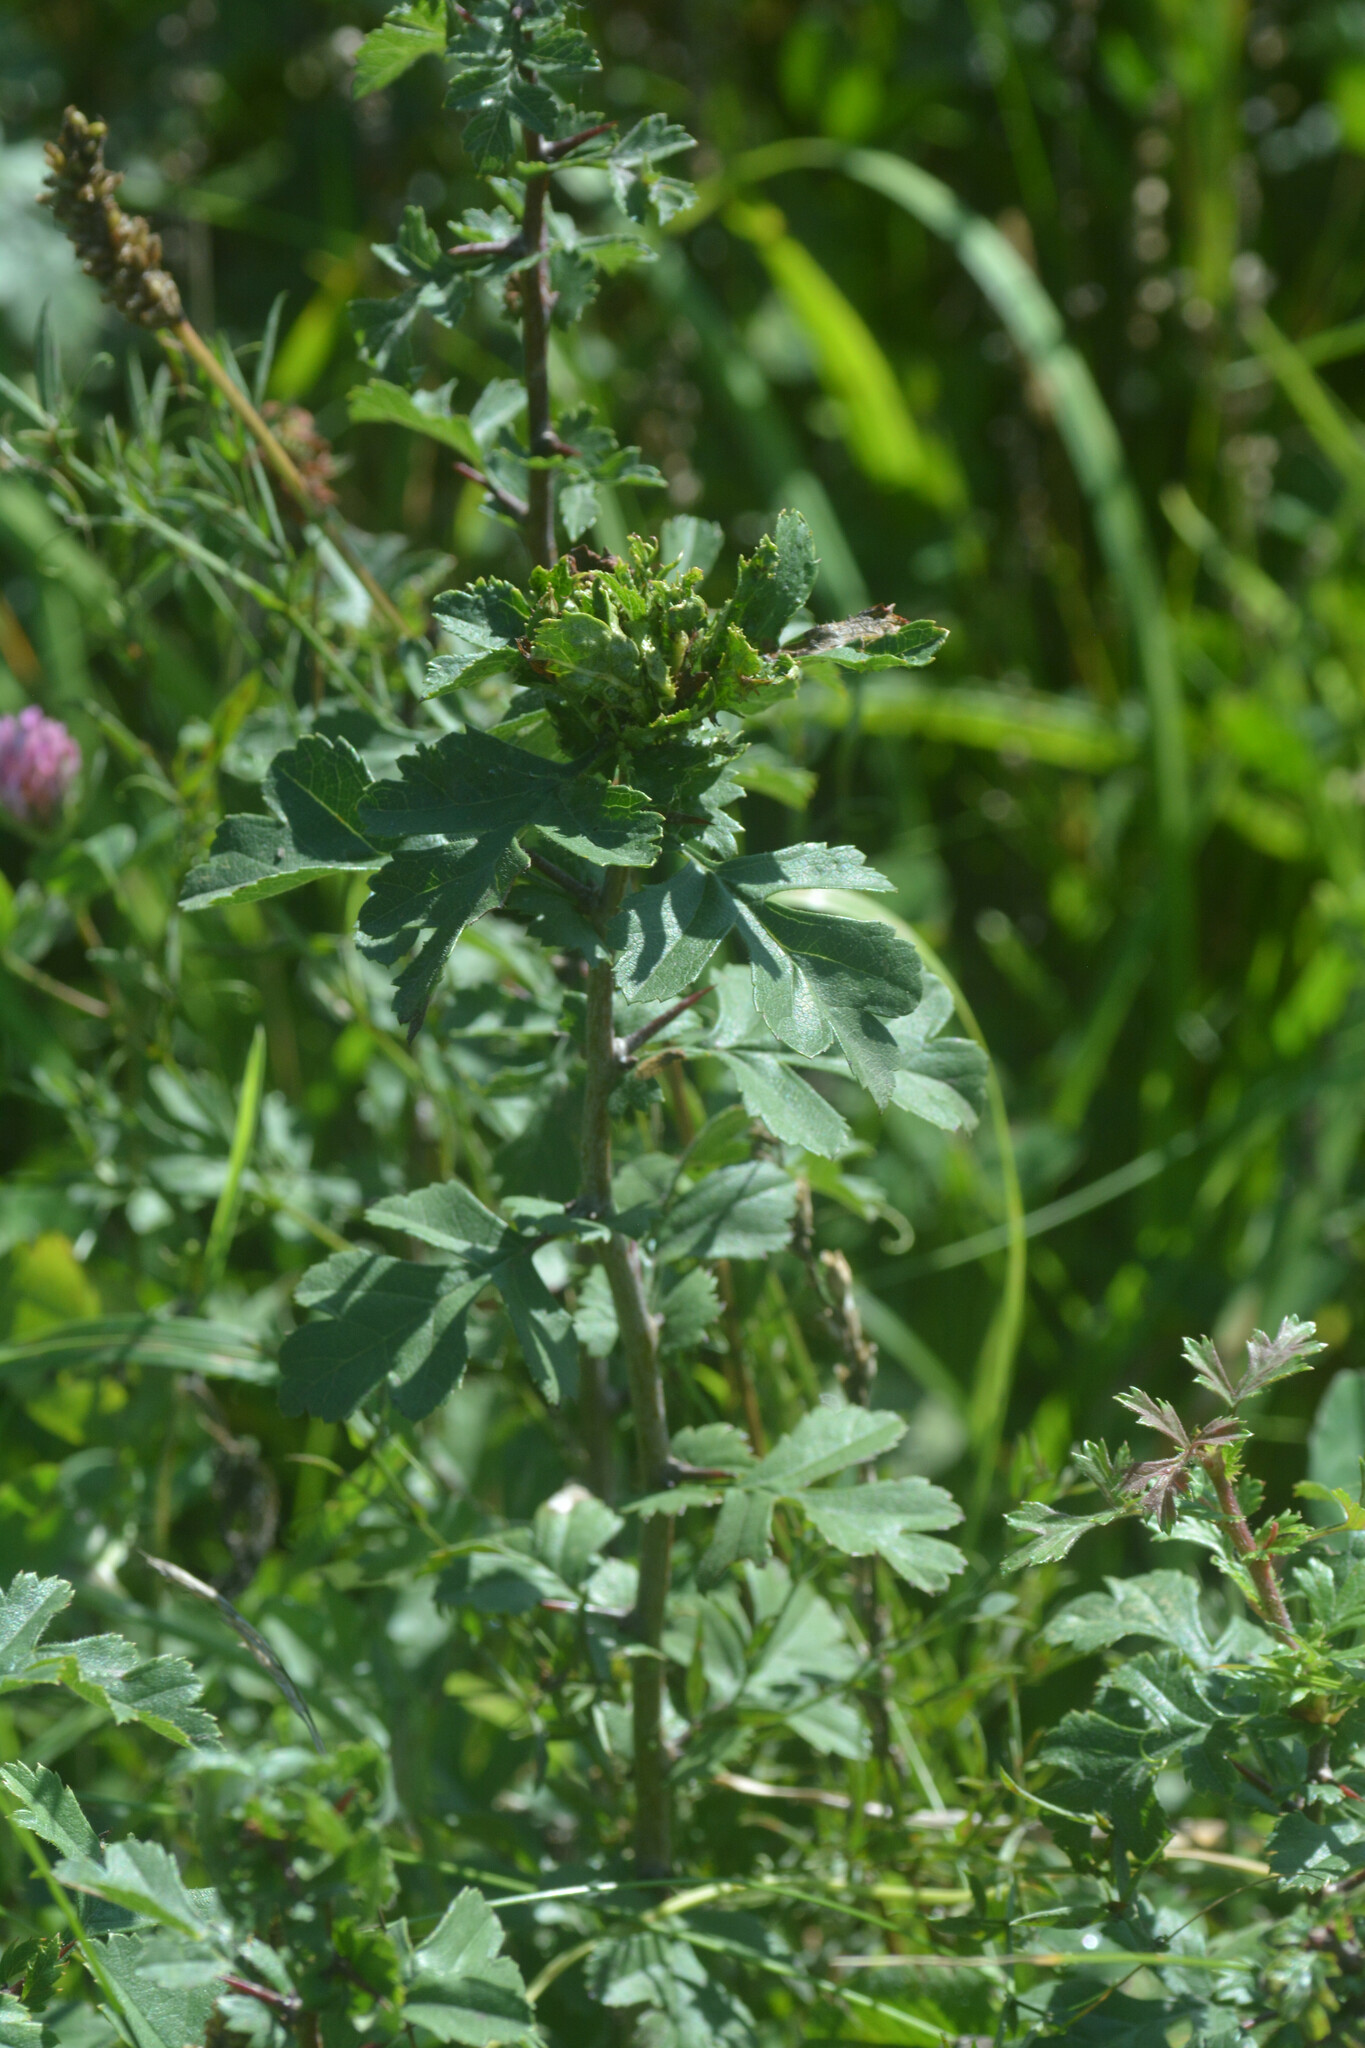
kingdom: Animalia
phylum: Arthropoda
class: Insecta
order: Diptera
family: Cecidomyiidae
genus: Dasineura
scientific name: Dasineura crataegi
